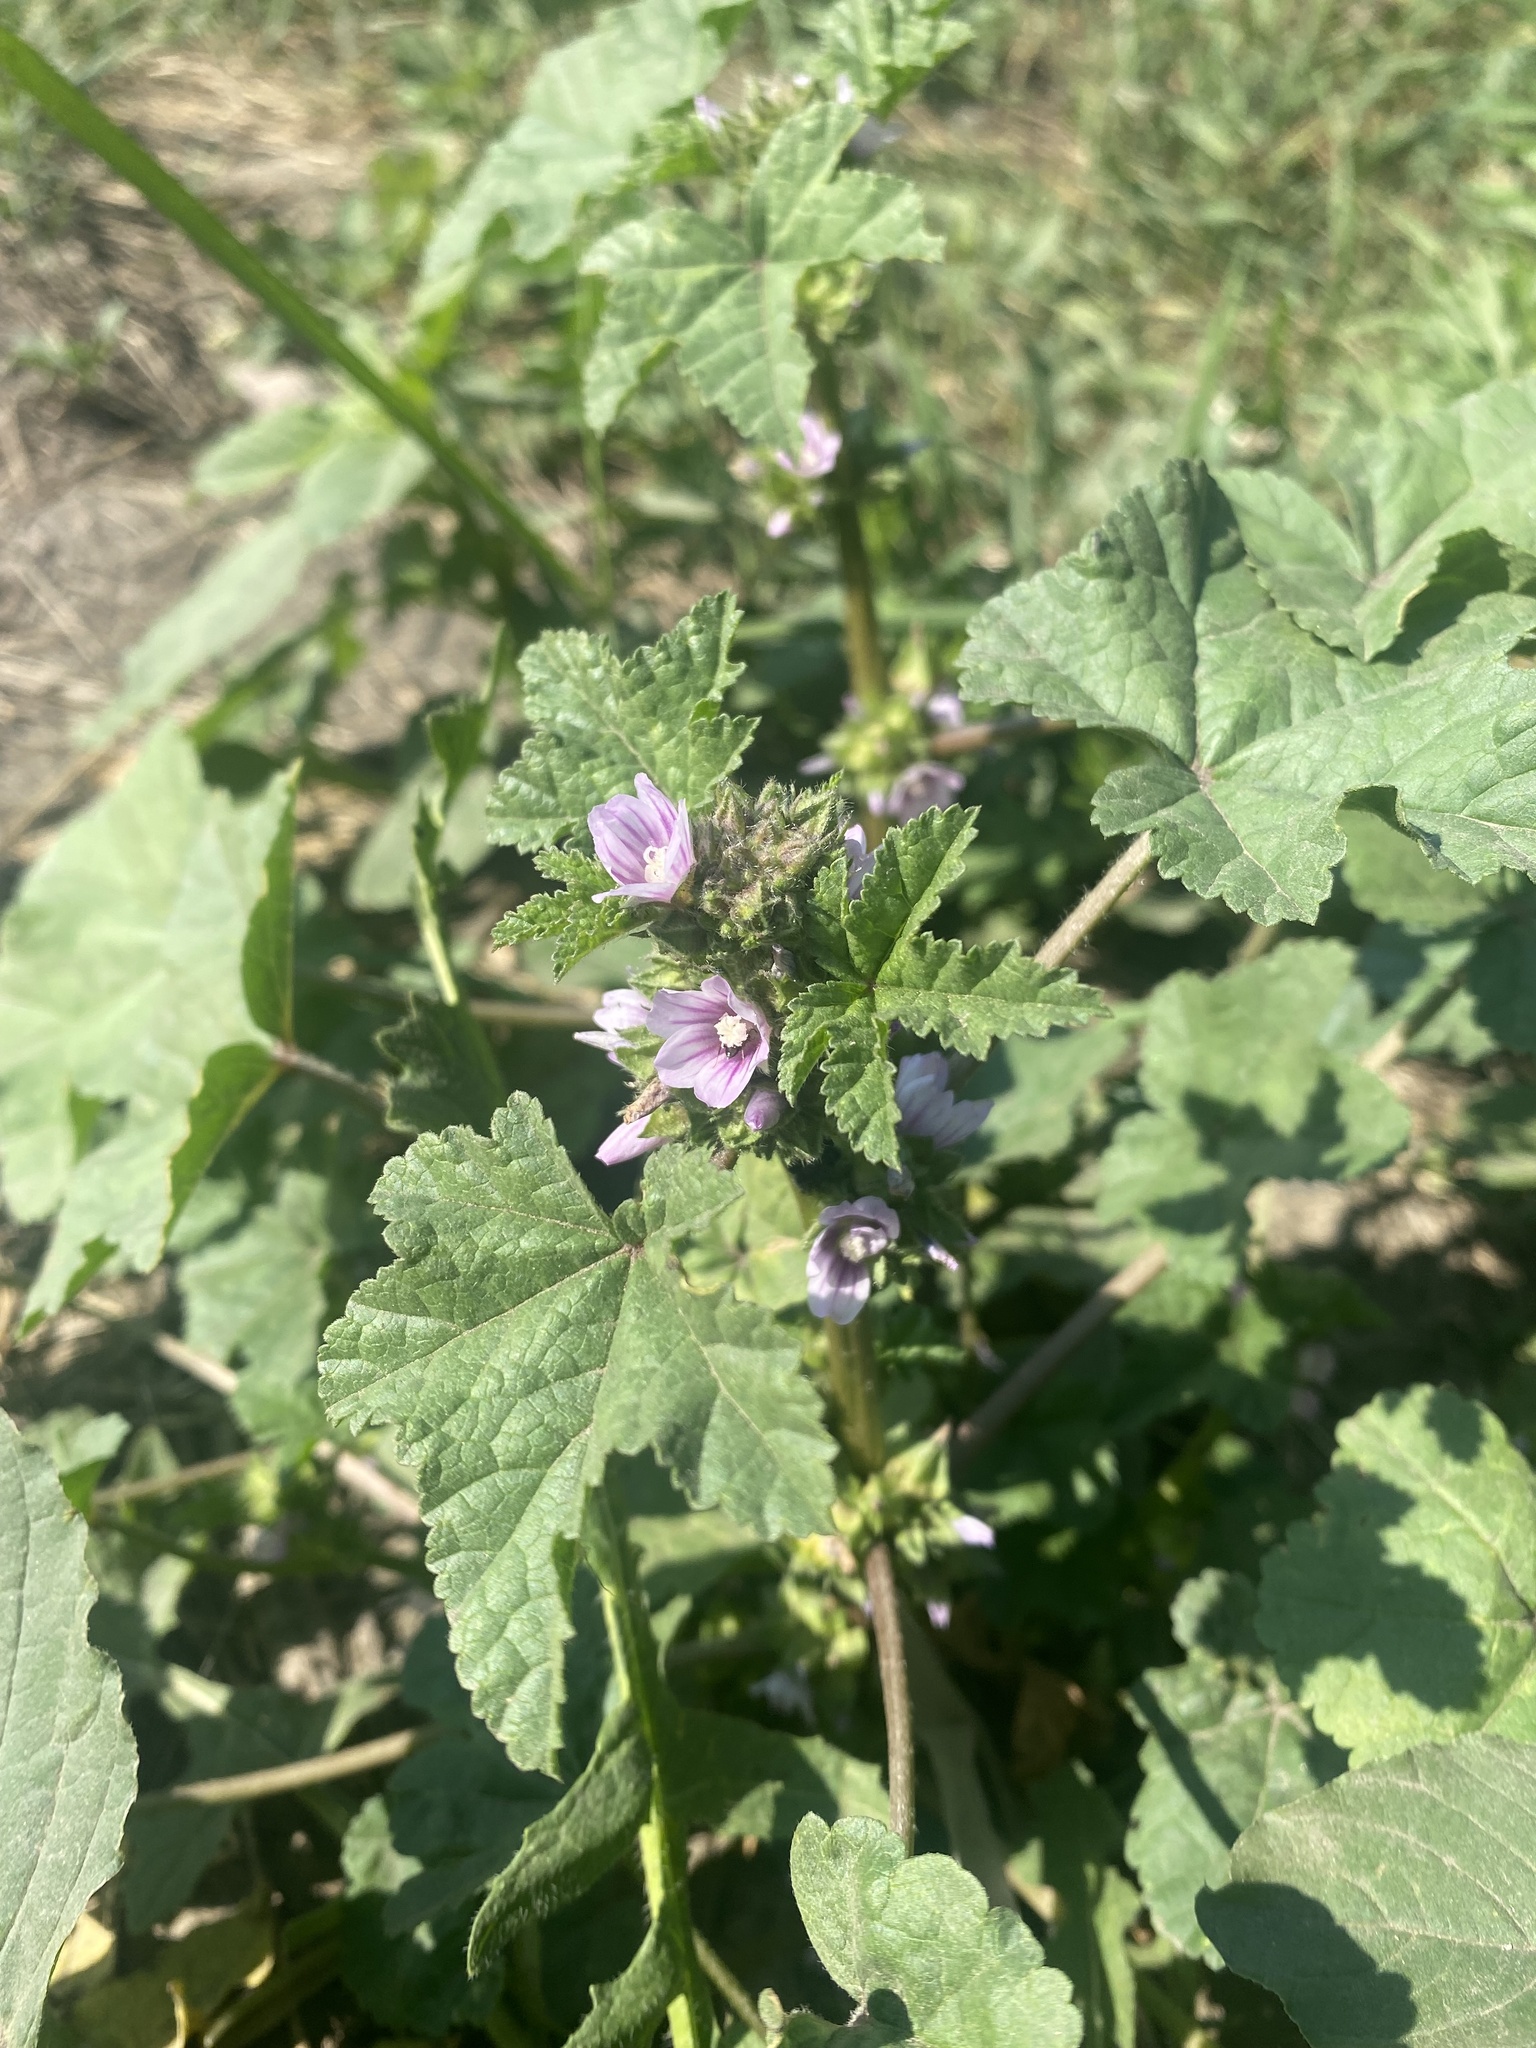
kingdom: Plantae
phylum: Tracheophyta
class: Magnoliopsida
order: Malvales
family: Malvaceae
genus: Malva
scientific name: Malva verticillata
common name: Chinese mallow
